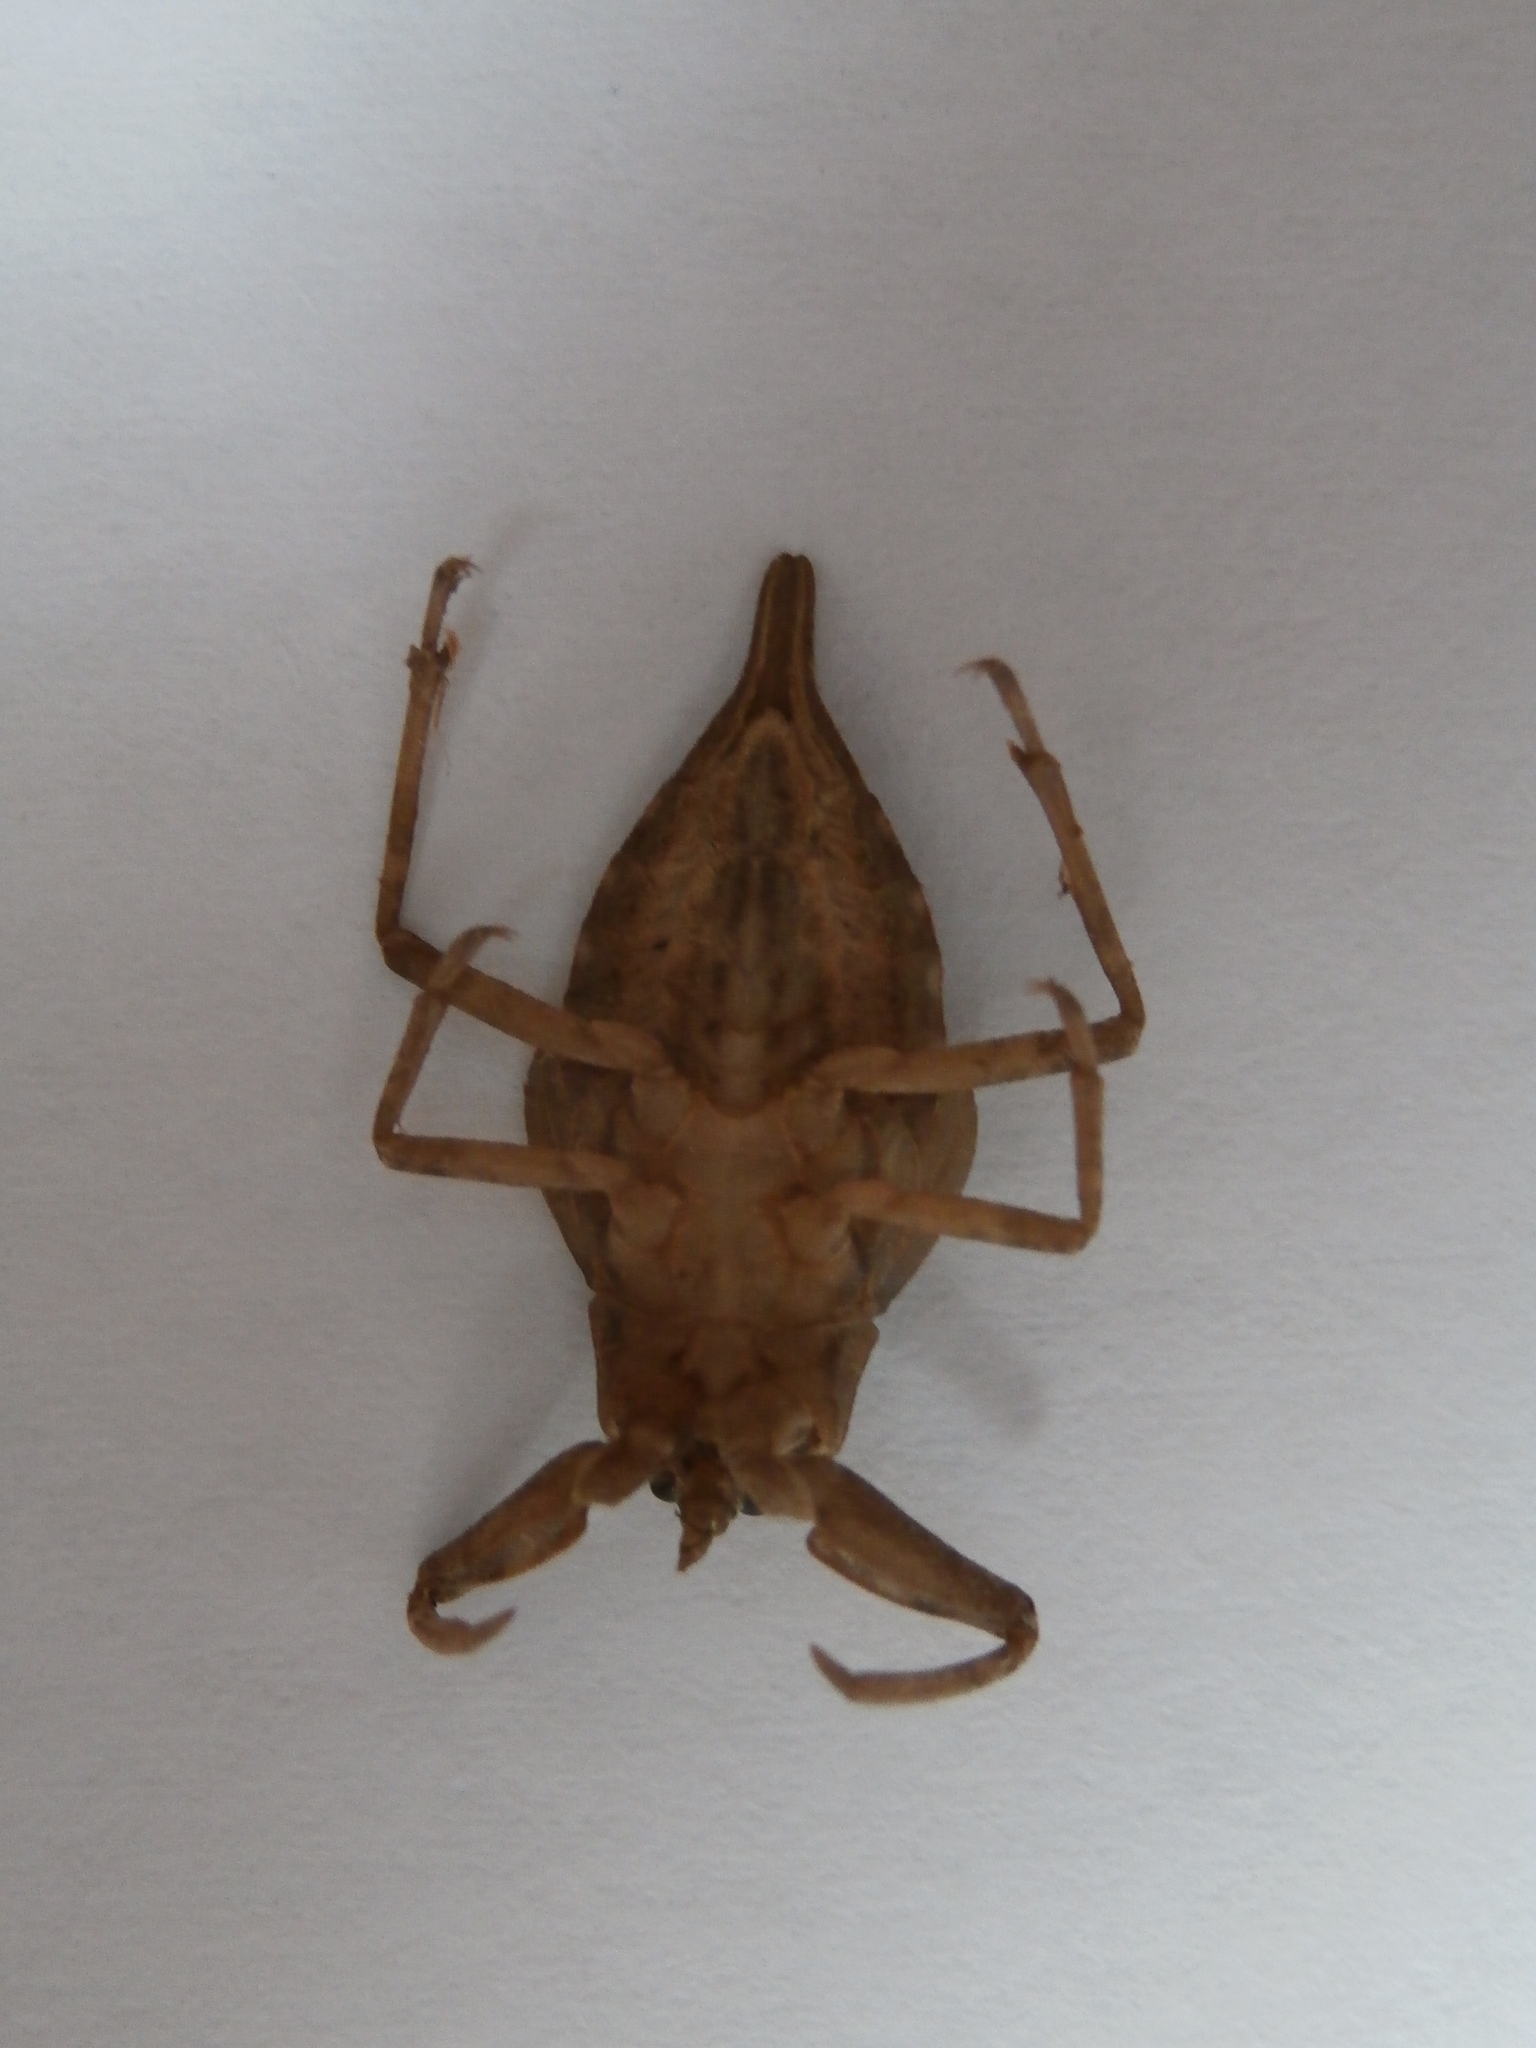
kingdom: Animalia
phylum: Arthropoda
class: Insecta
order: Hemiptera
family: Nepidae
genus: Nepa
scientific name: Nepa cinerea
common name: Water scorpion
